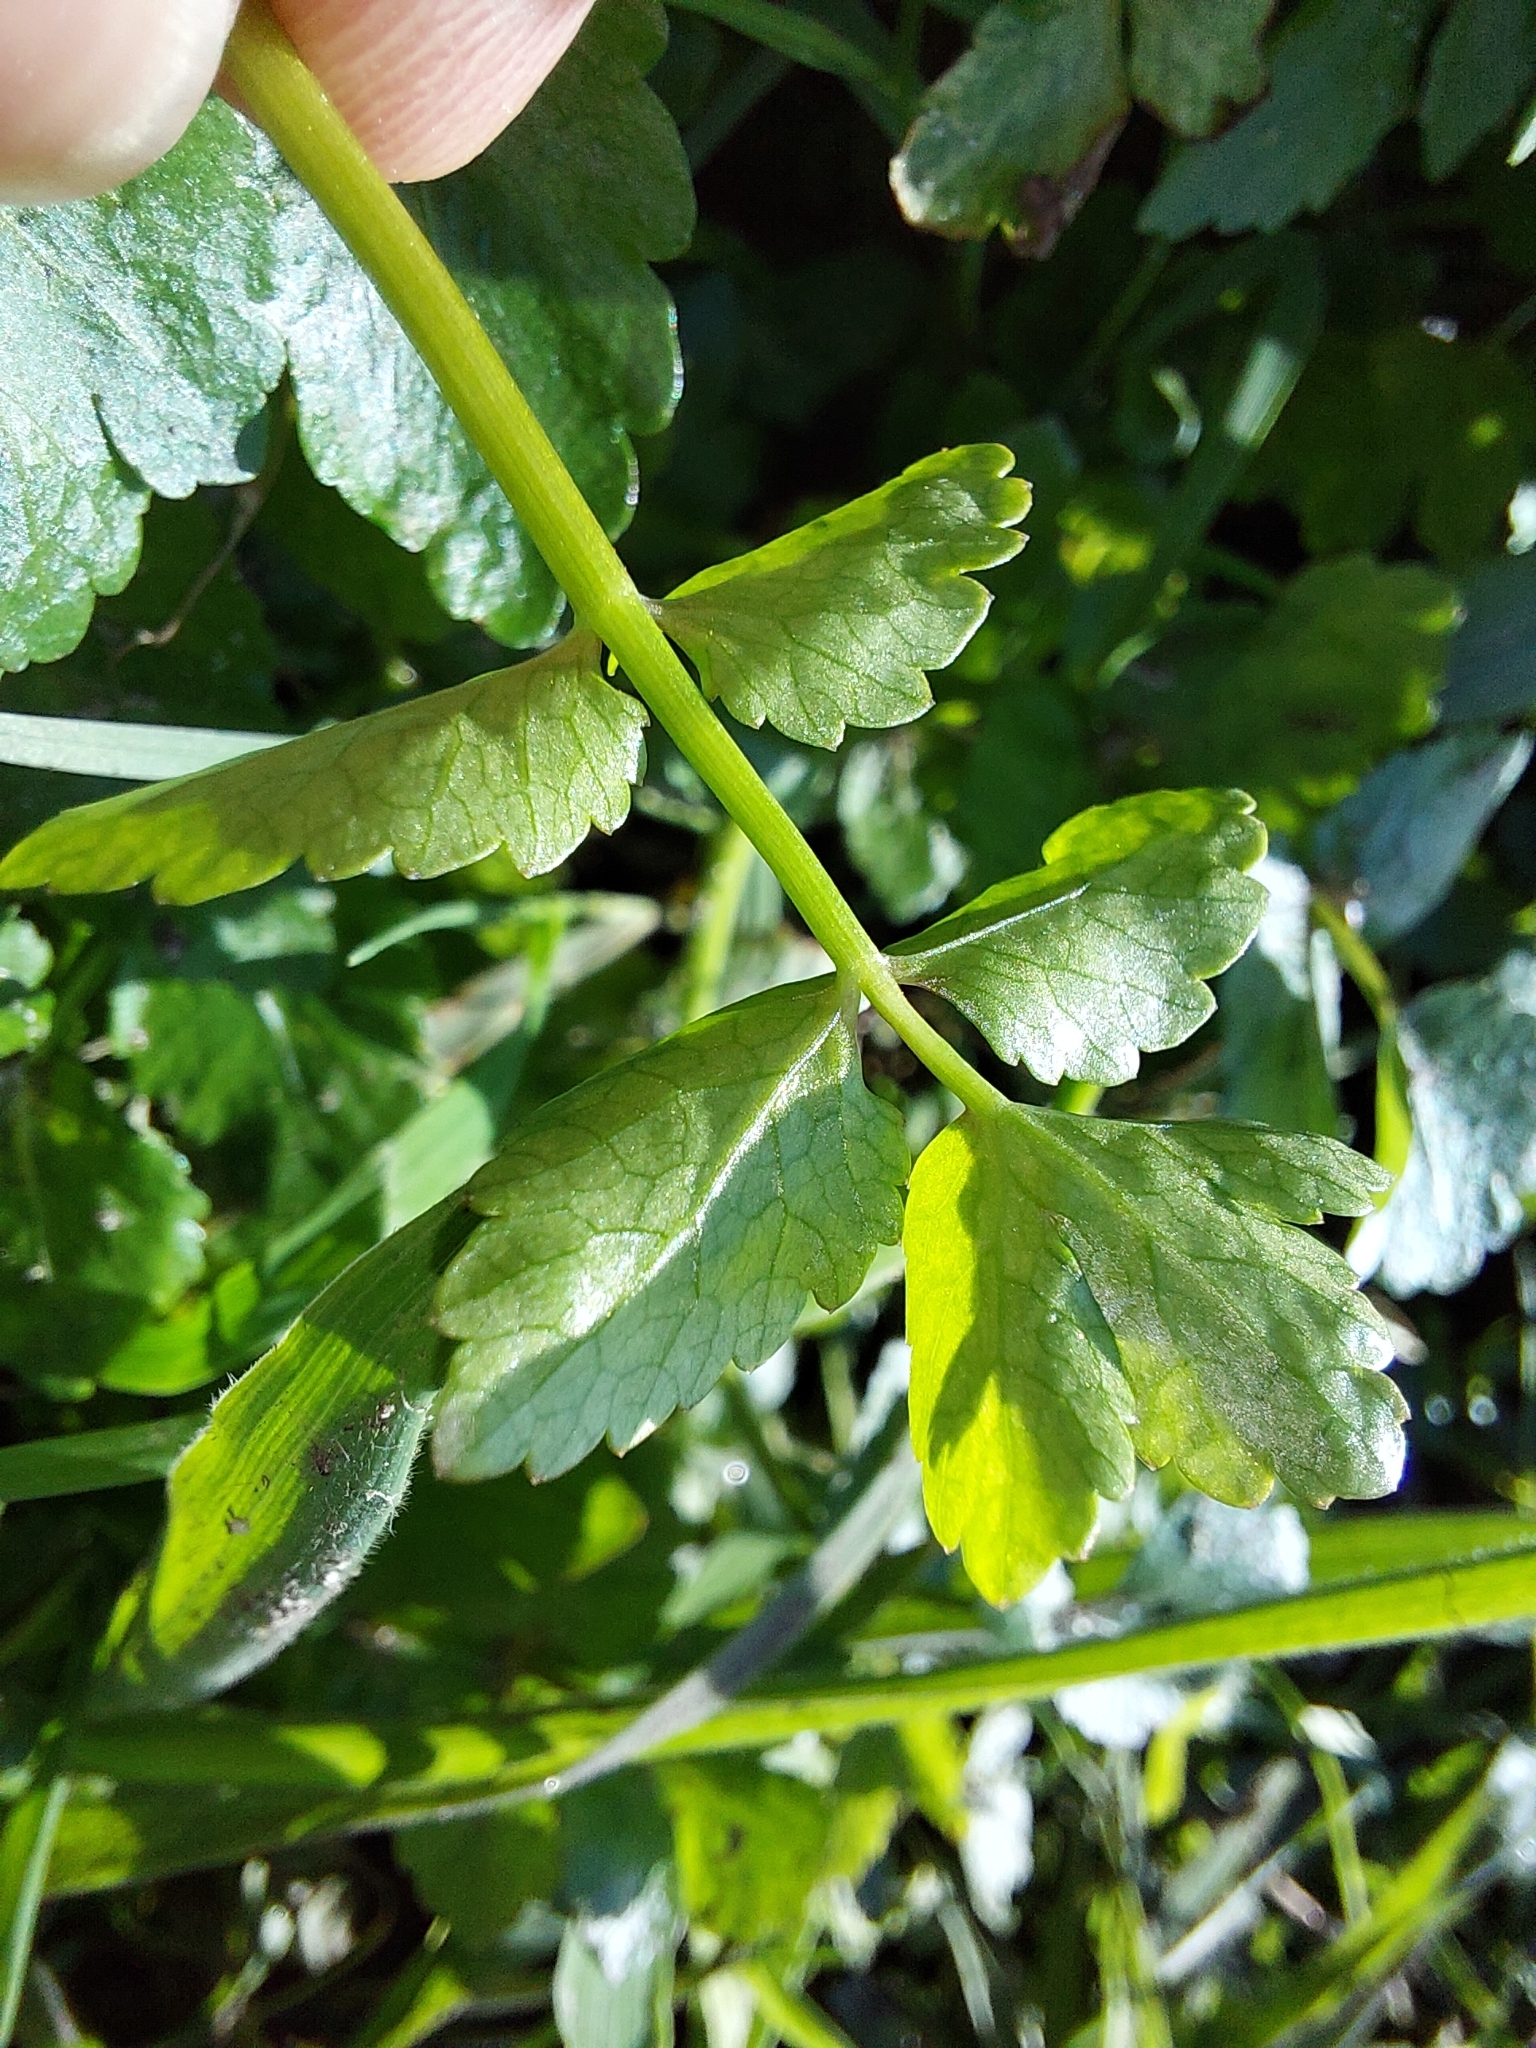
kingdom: Plantae
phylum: Tracheophyta
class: Magnoliopsida
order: Apiales
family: Apiaceae
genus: Helosciadium
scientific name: Helosciadium nodiflorum
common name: Fool's-watercress
